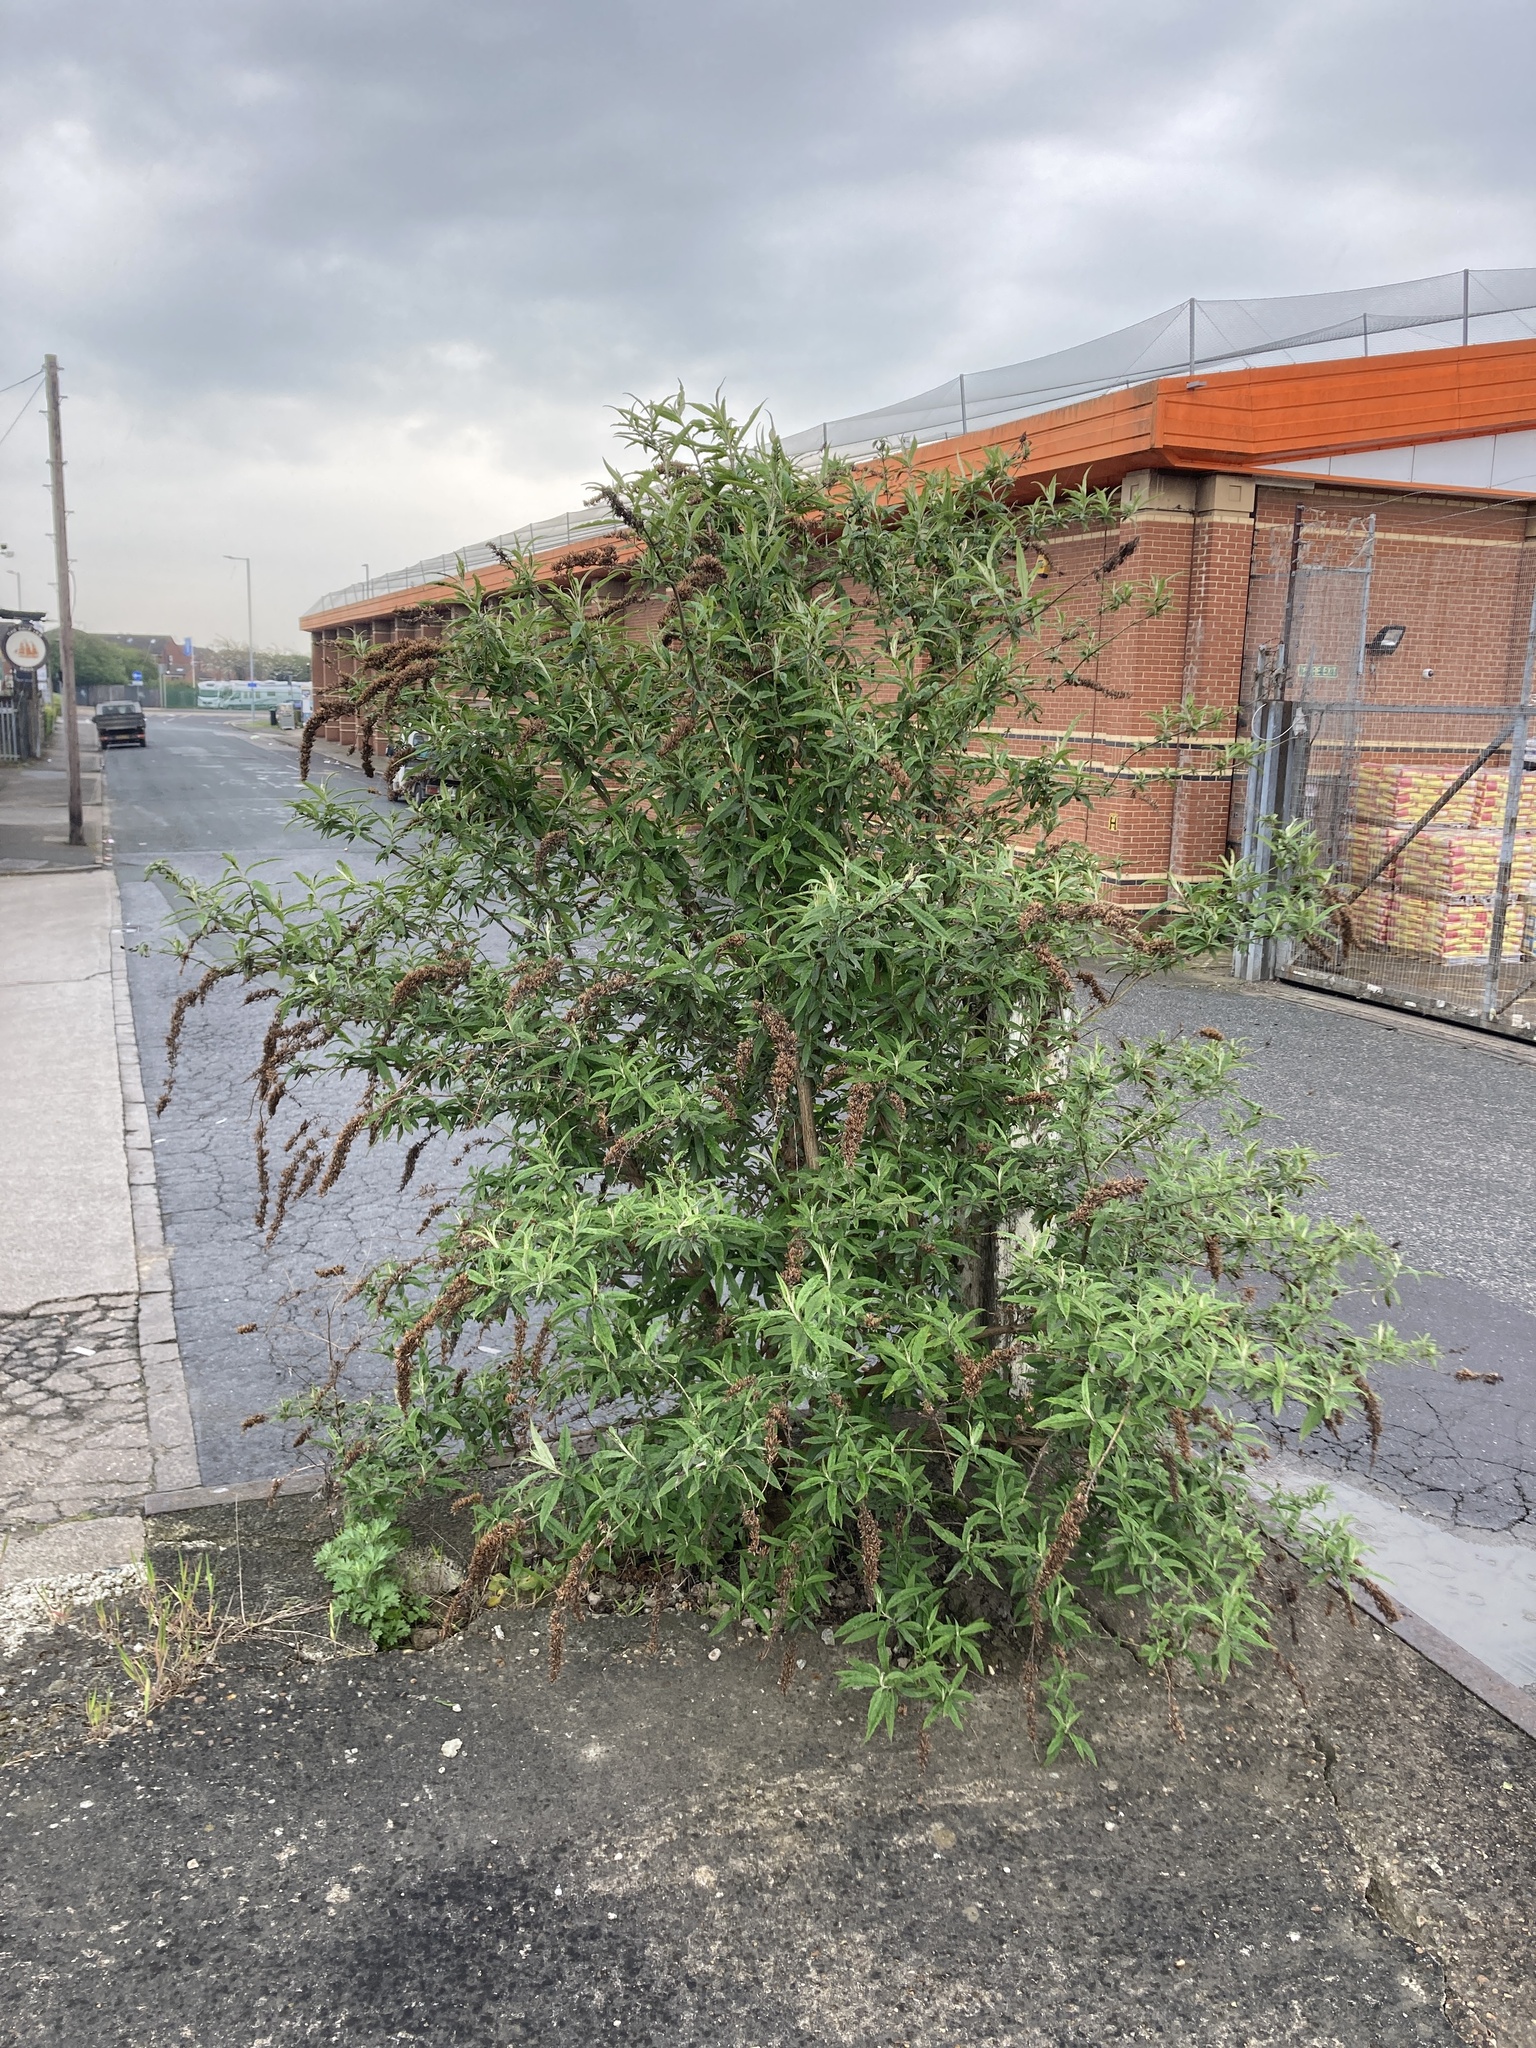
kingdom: Plantae
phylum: Tracheophyta
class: Magnoliopsida
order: Lamiales
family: Scrophulariaceae
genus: Buddleja
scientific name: Buddleja davidii
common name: Butterfly-bush
